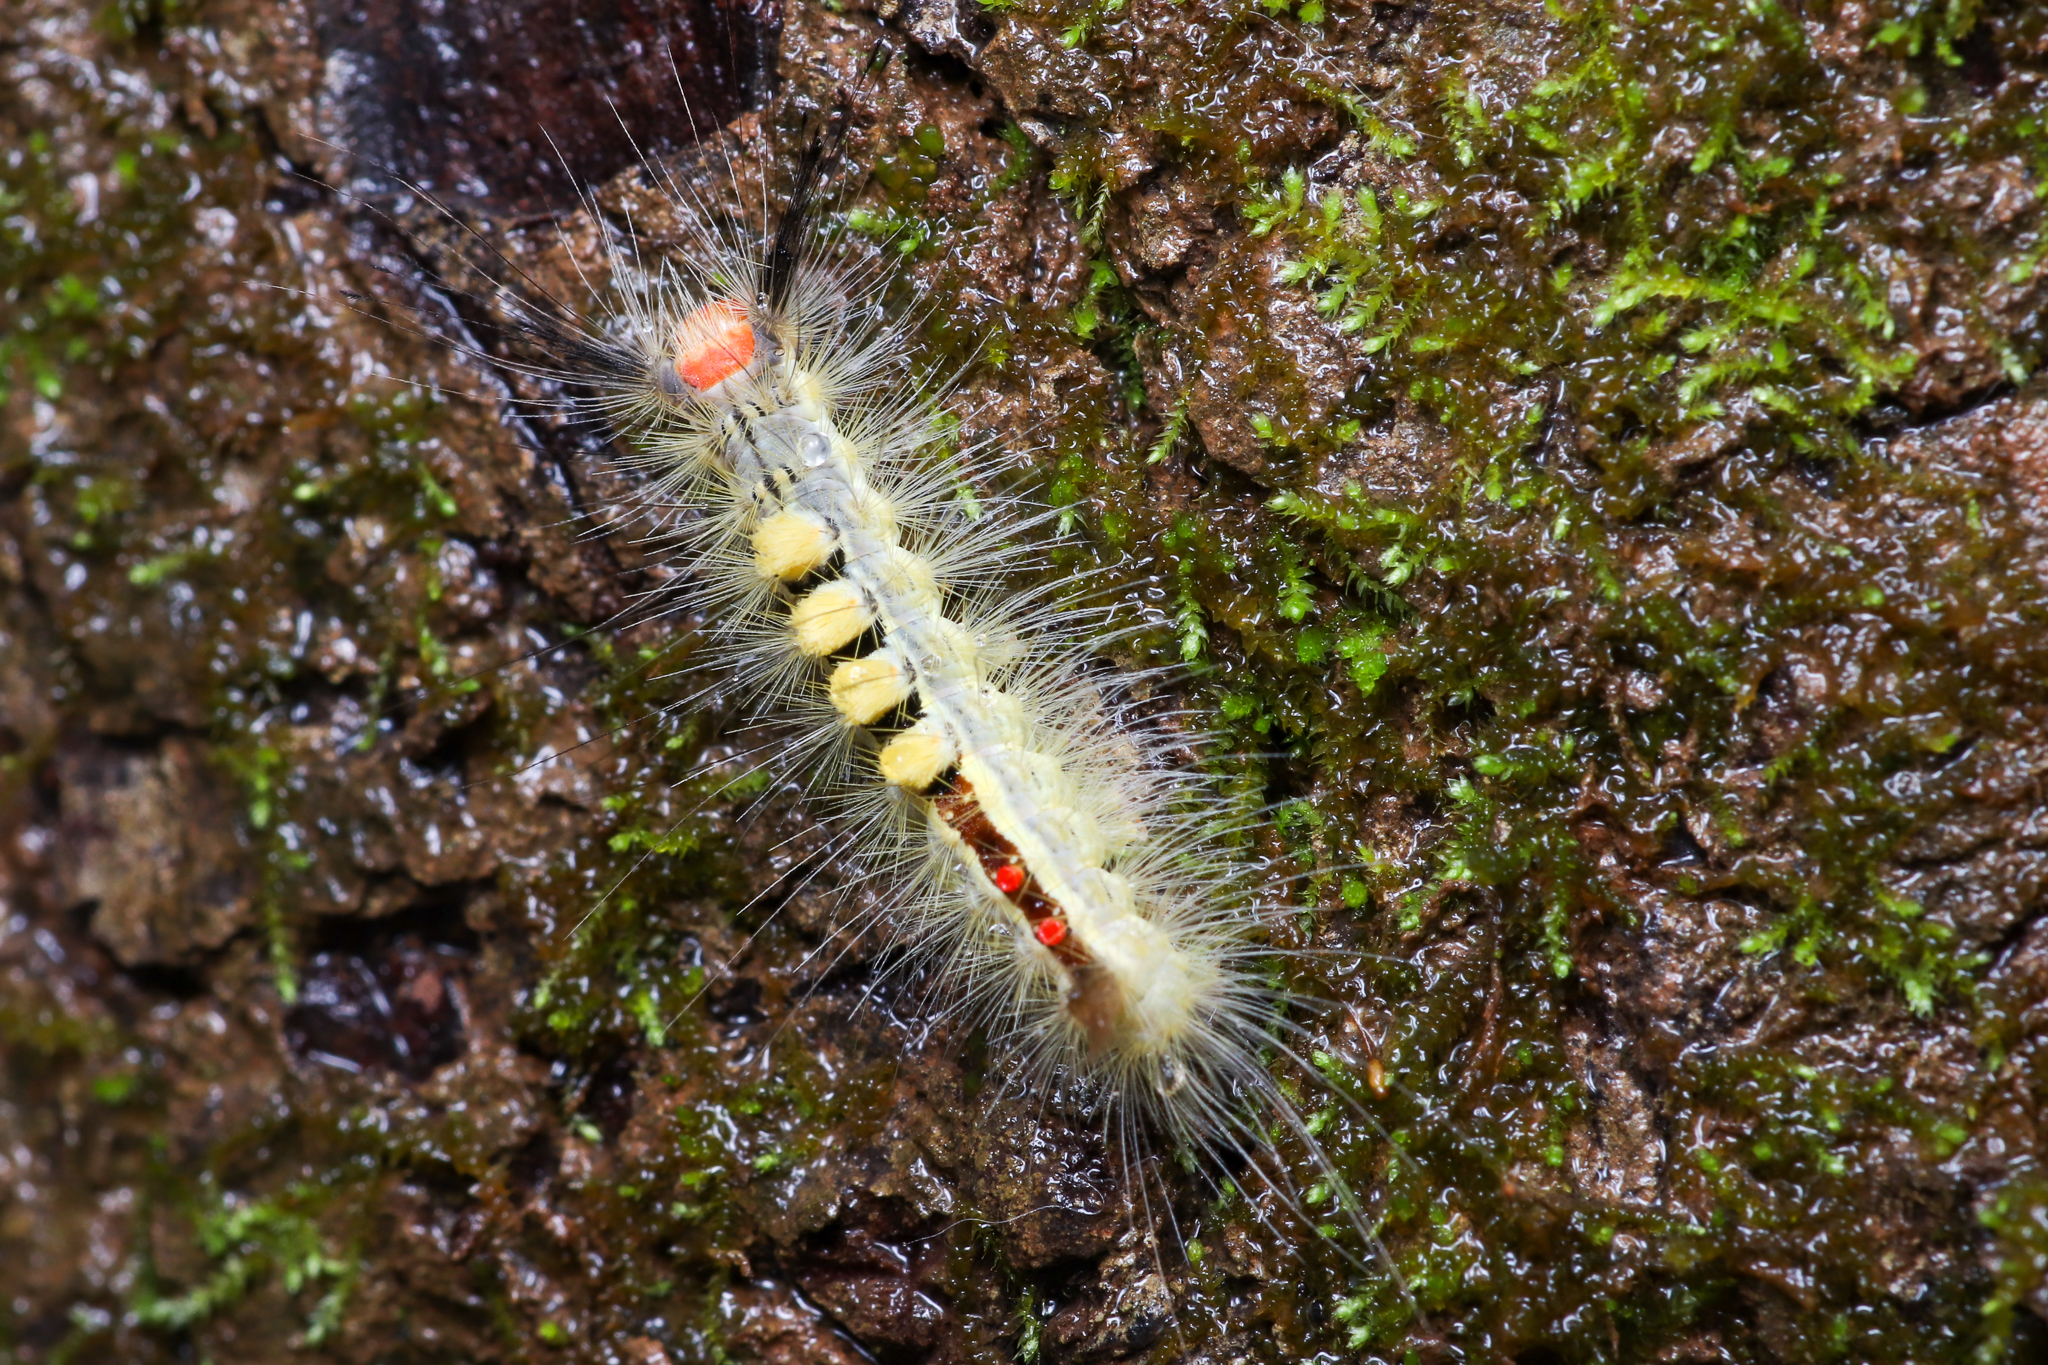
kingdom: Animalia
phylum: Arthropoda
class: Insecta
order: Lepidoptera
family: Erebidae
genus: Orgyia
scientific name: Orgyia leucostigma
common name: White-marked tussock moth
